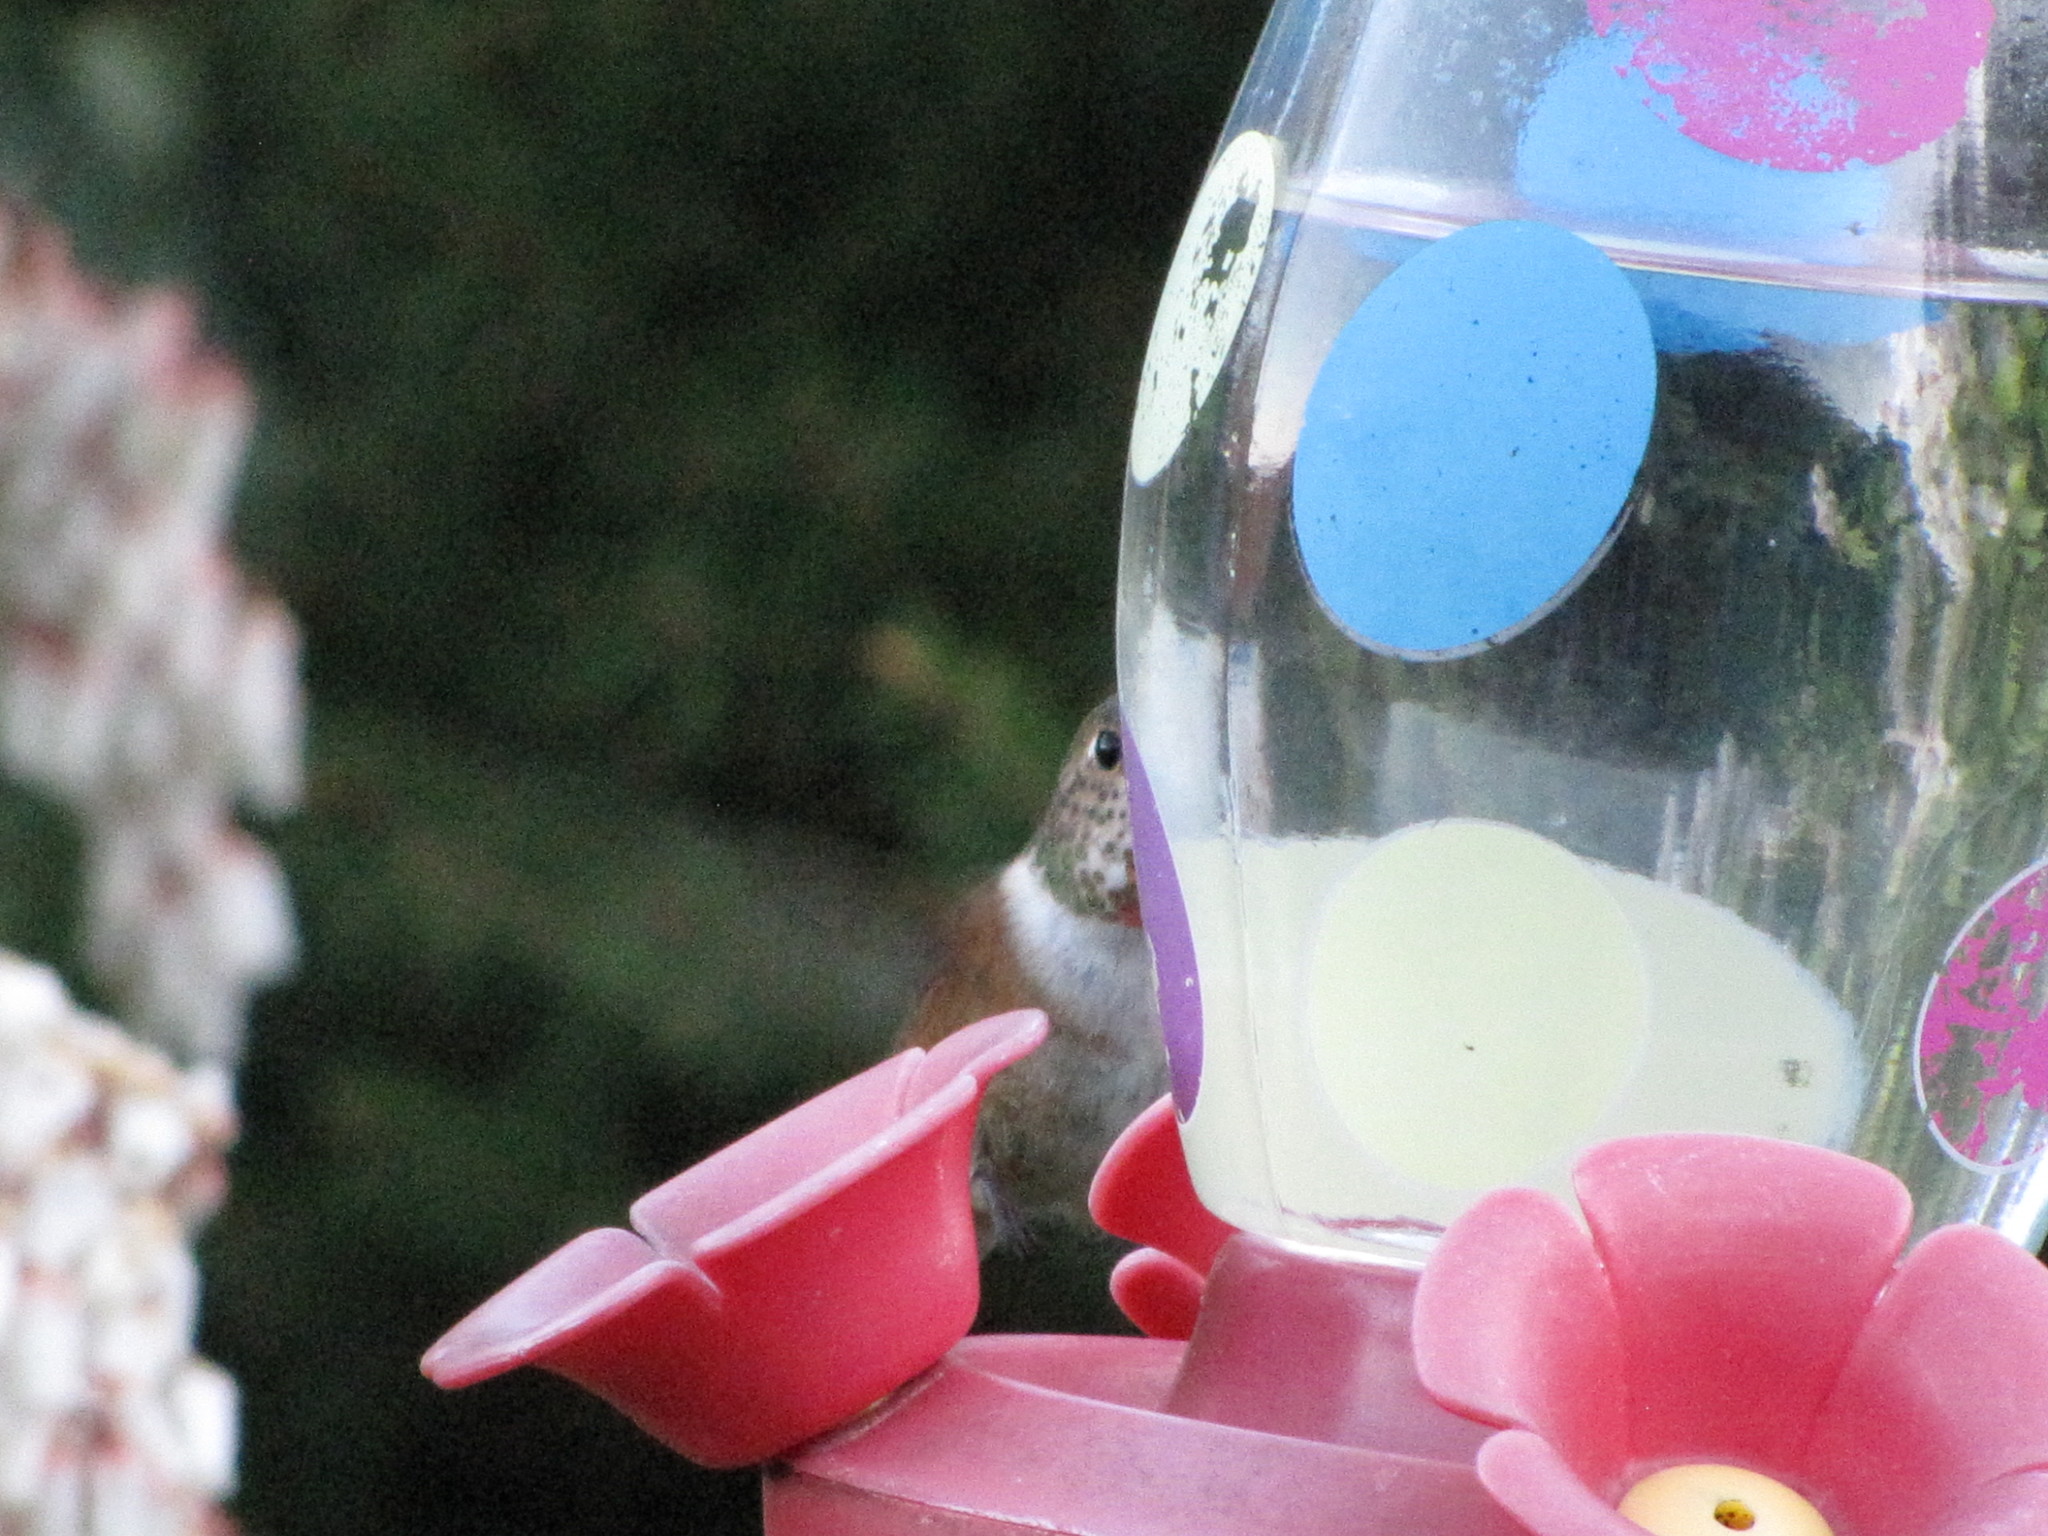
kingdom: Animalia
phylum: Chordata
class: Aves
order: Apodiformes
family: Trochilidae
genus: Selasphorus
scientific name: Selasphorus rufus
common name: Rufous hummingbird
